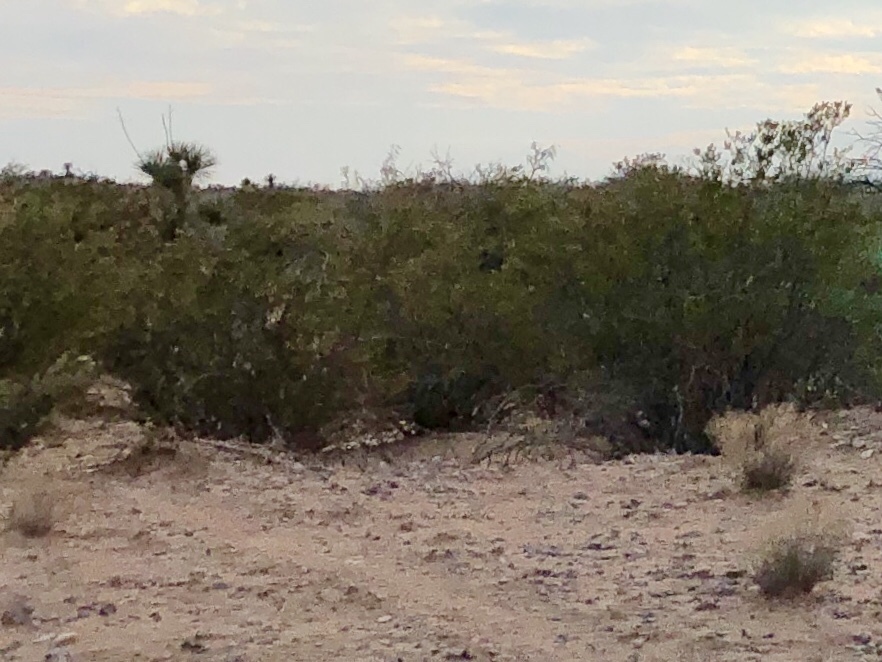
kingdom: Plantae
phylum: Tracheophyta
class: Magnoliopsida
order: Zygophyllales
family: Zygophyllaceae
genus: Larrea
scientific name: Larrea tridentata
